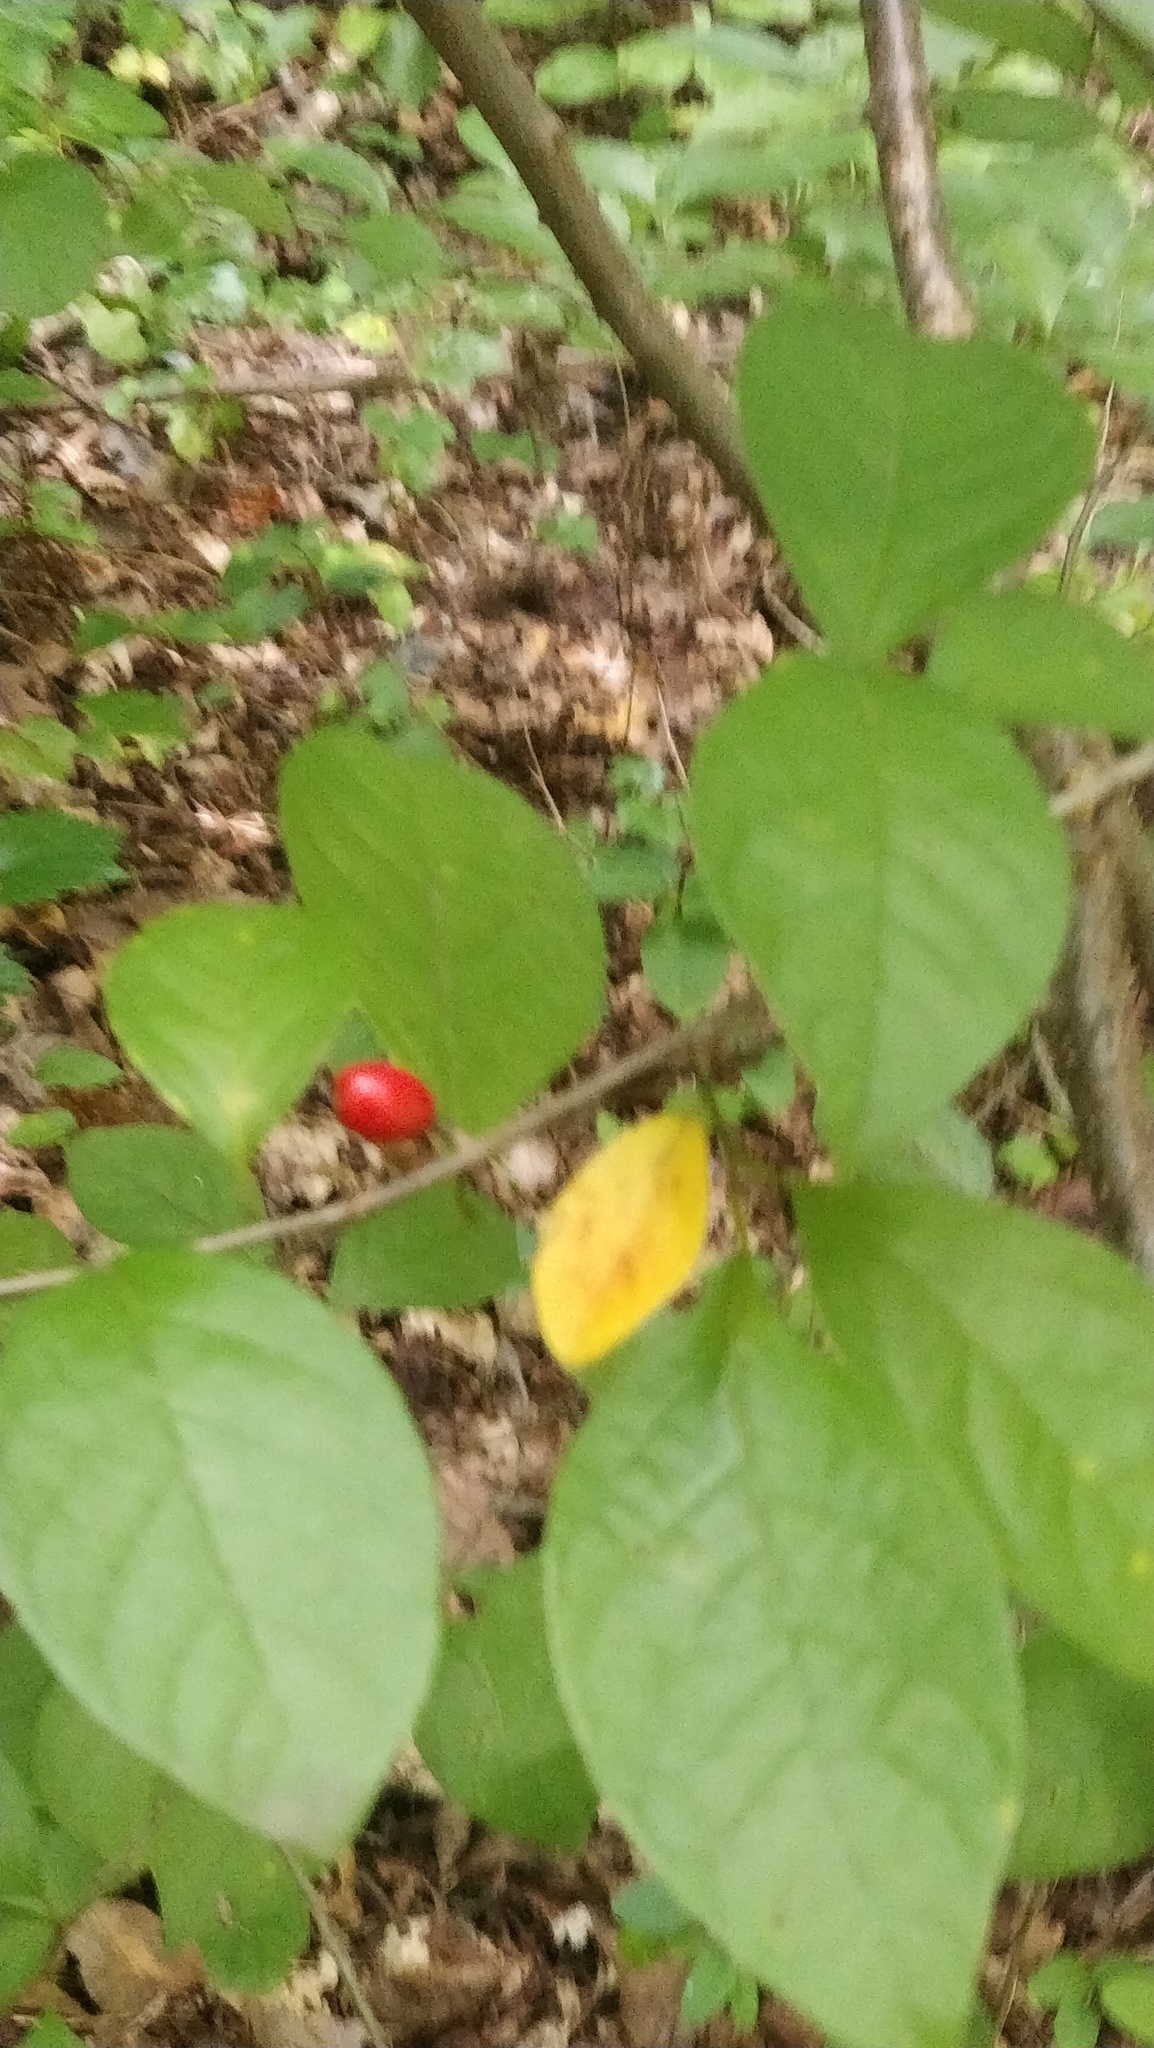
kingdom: Plantae
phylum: Tracheophyta
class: Magnoliopsida
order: Laurales
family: Lauraceae
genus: Lindera
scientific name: Lindera benzoin
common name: Spicebush
